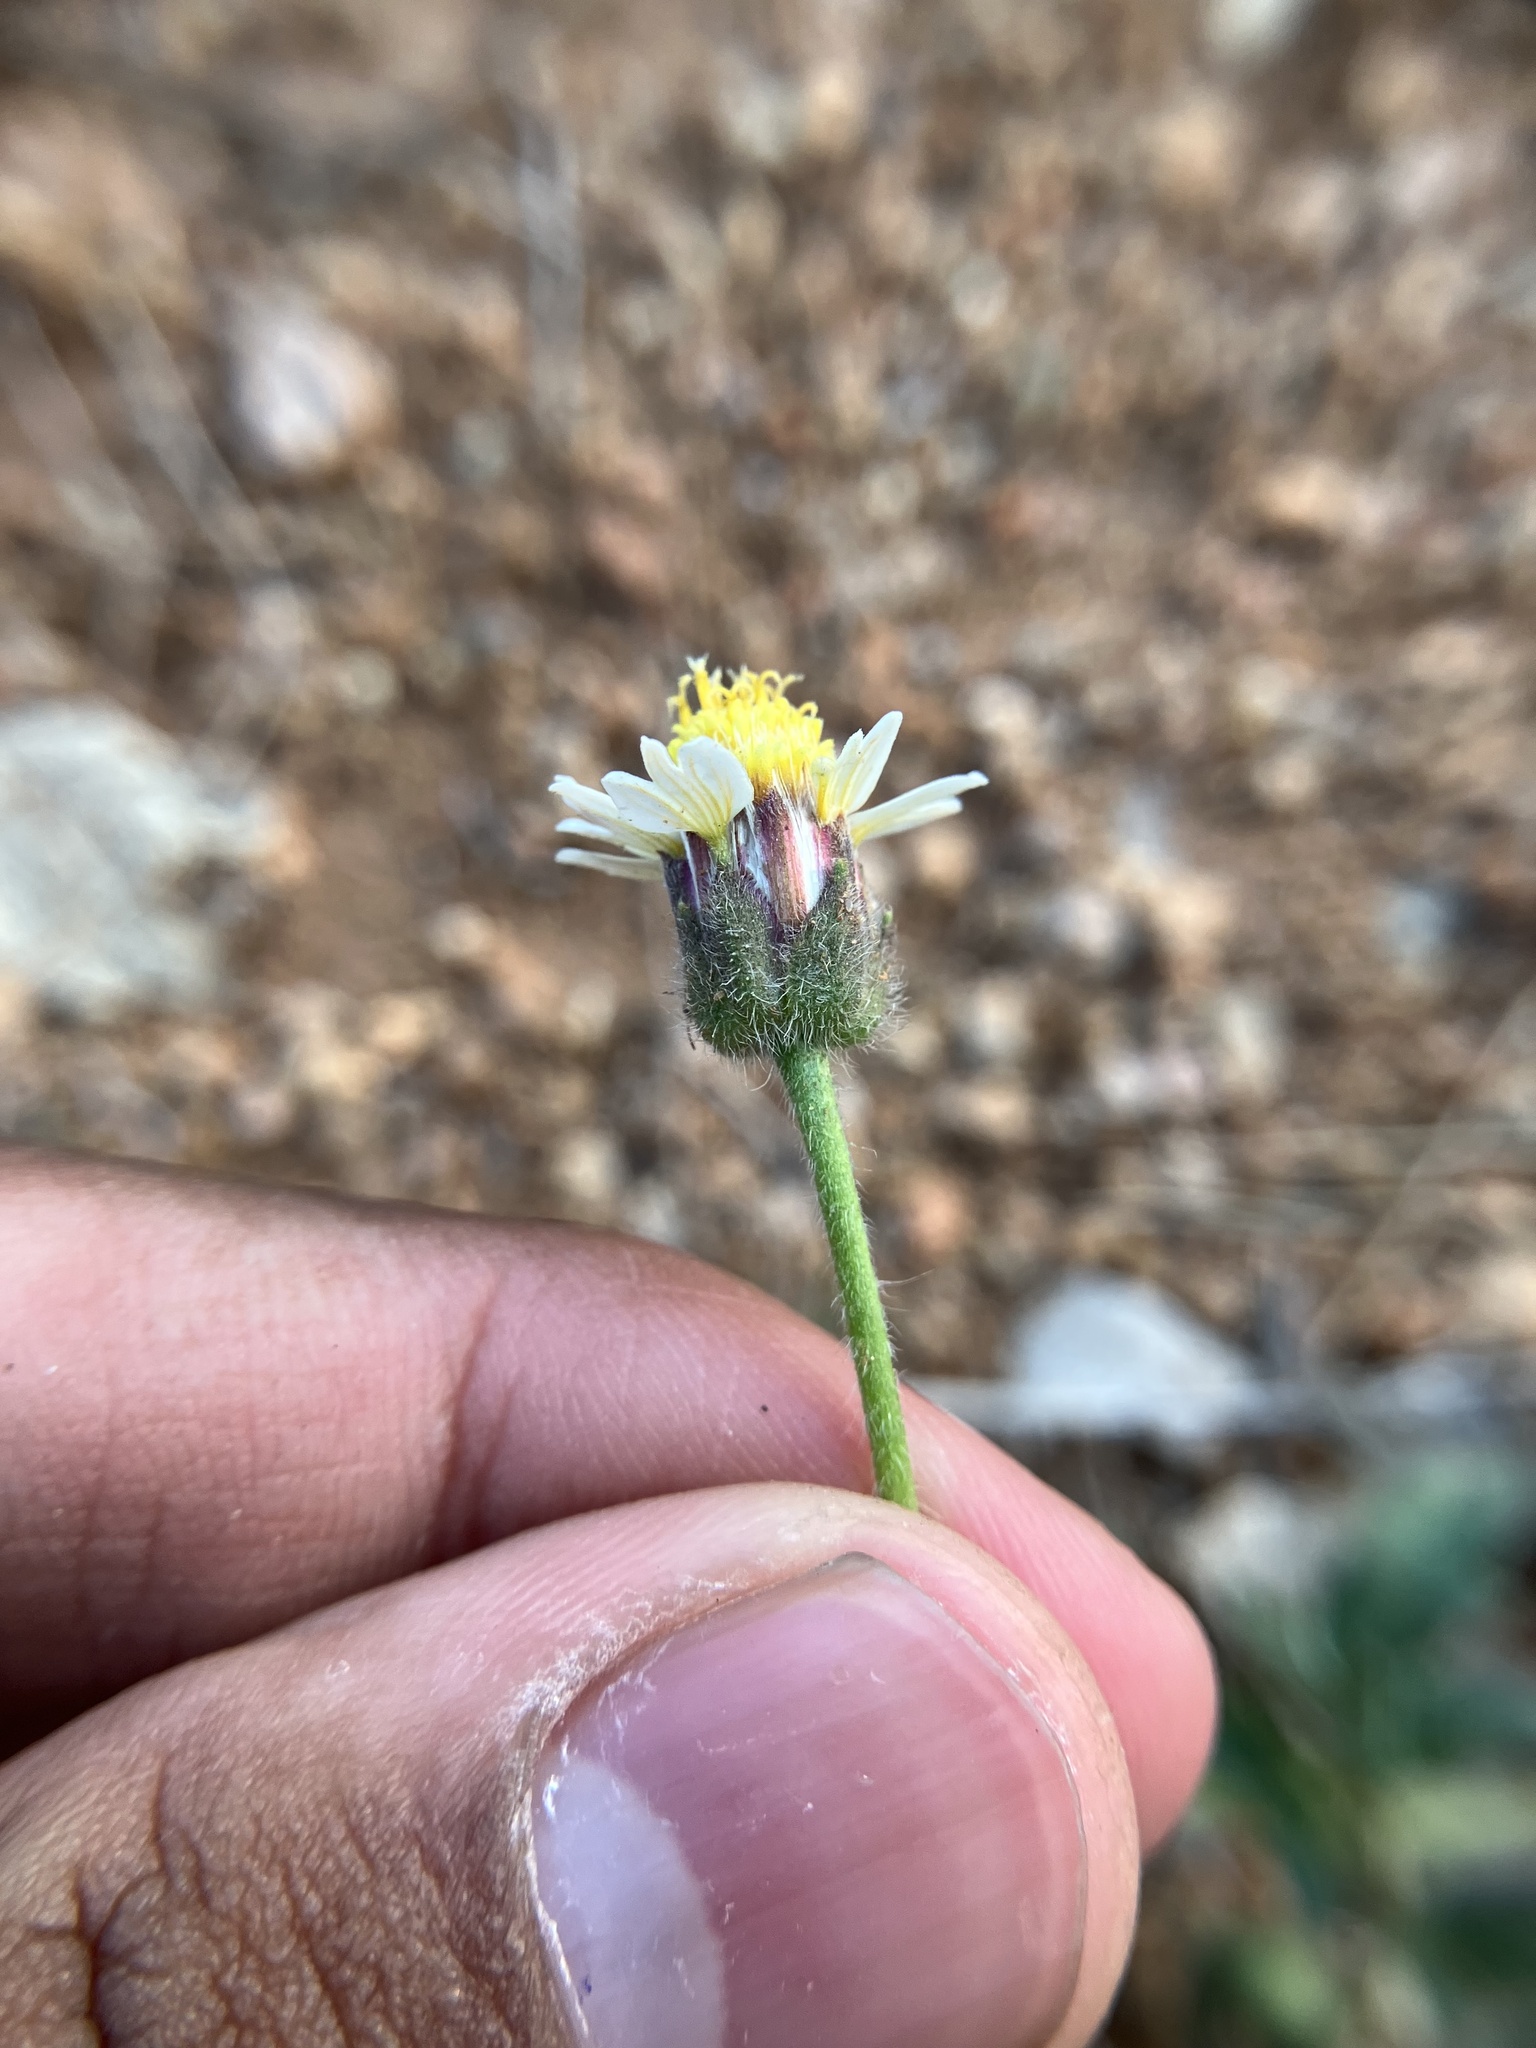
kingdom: Plantae
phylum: Tracheophyta
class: Magnoliopsida
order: Asterales
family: Asteraceae
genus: Tridax
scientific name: Tridax procumbens
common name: Coatbuttons
